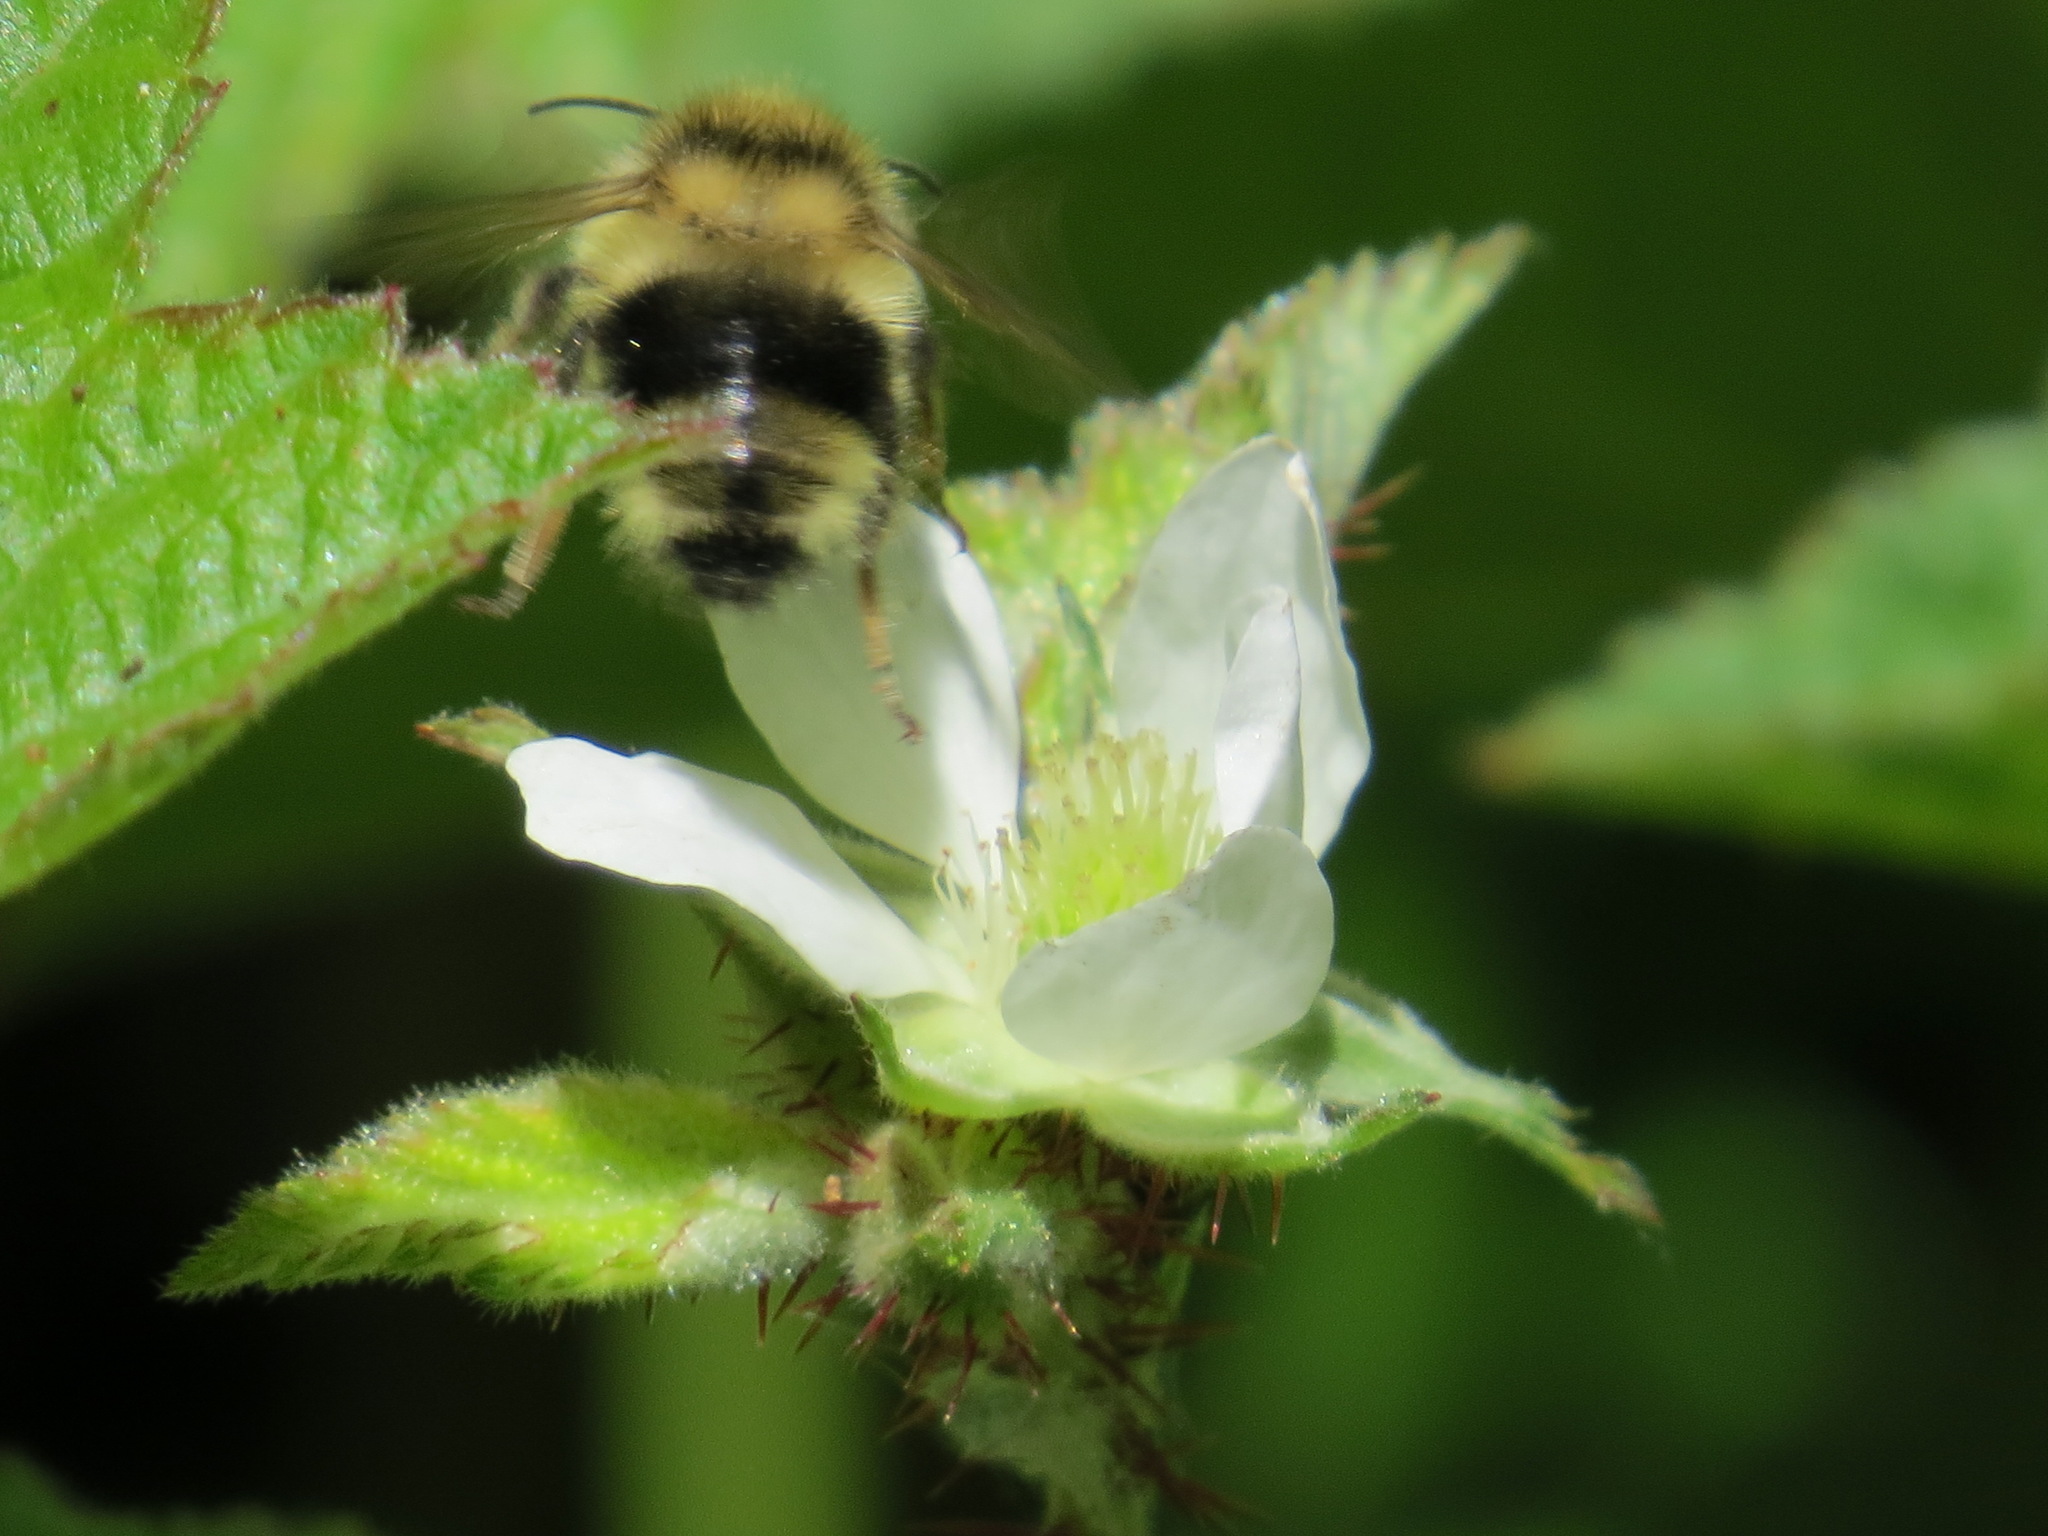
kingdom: Animalia
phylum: Arthropoda
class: Insecta
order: Hymenoptera
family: Apidae
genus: Bombus
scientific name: Bombus melanopygus
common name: Black tail bumble bee
